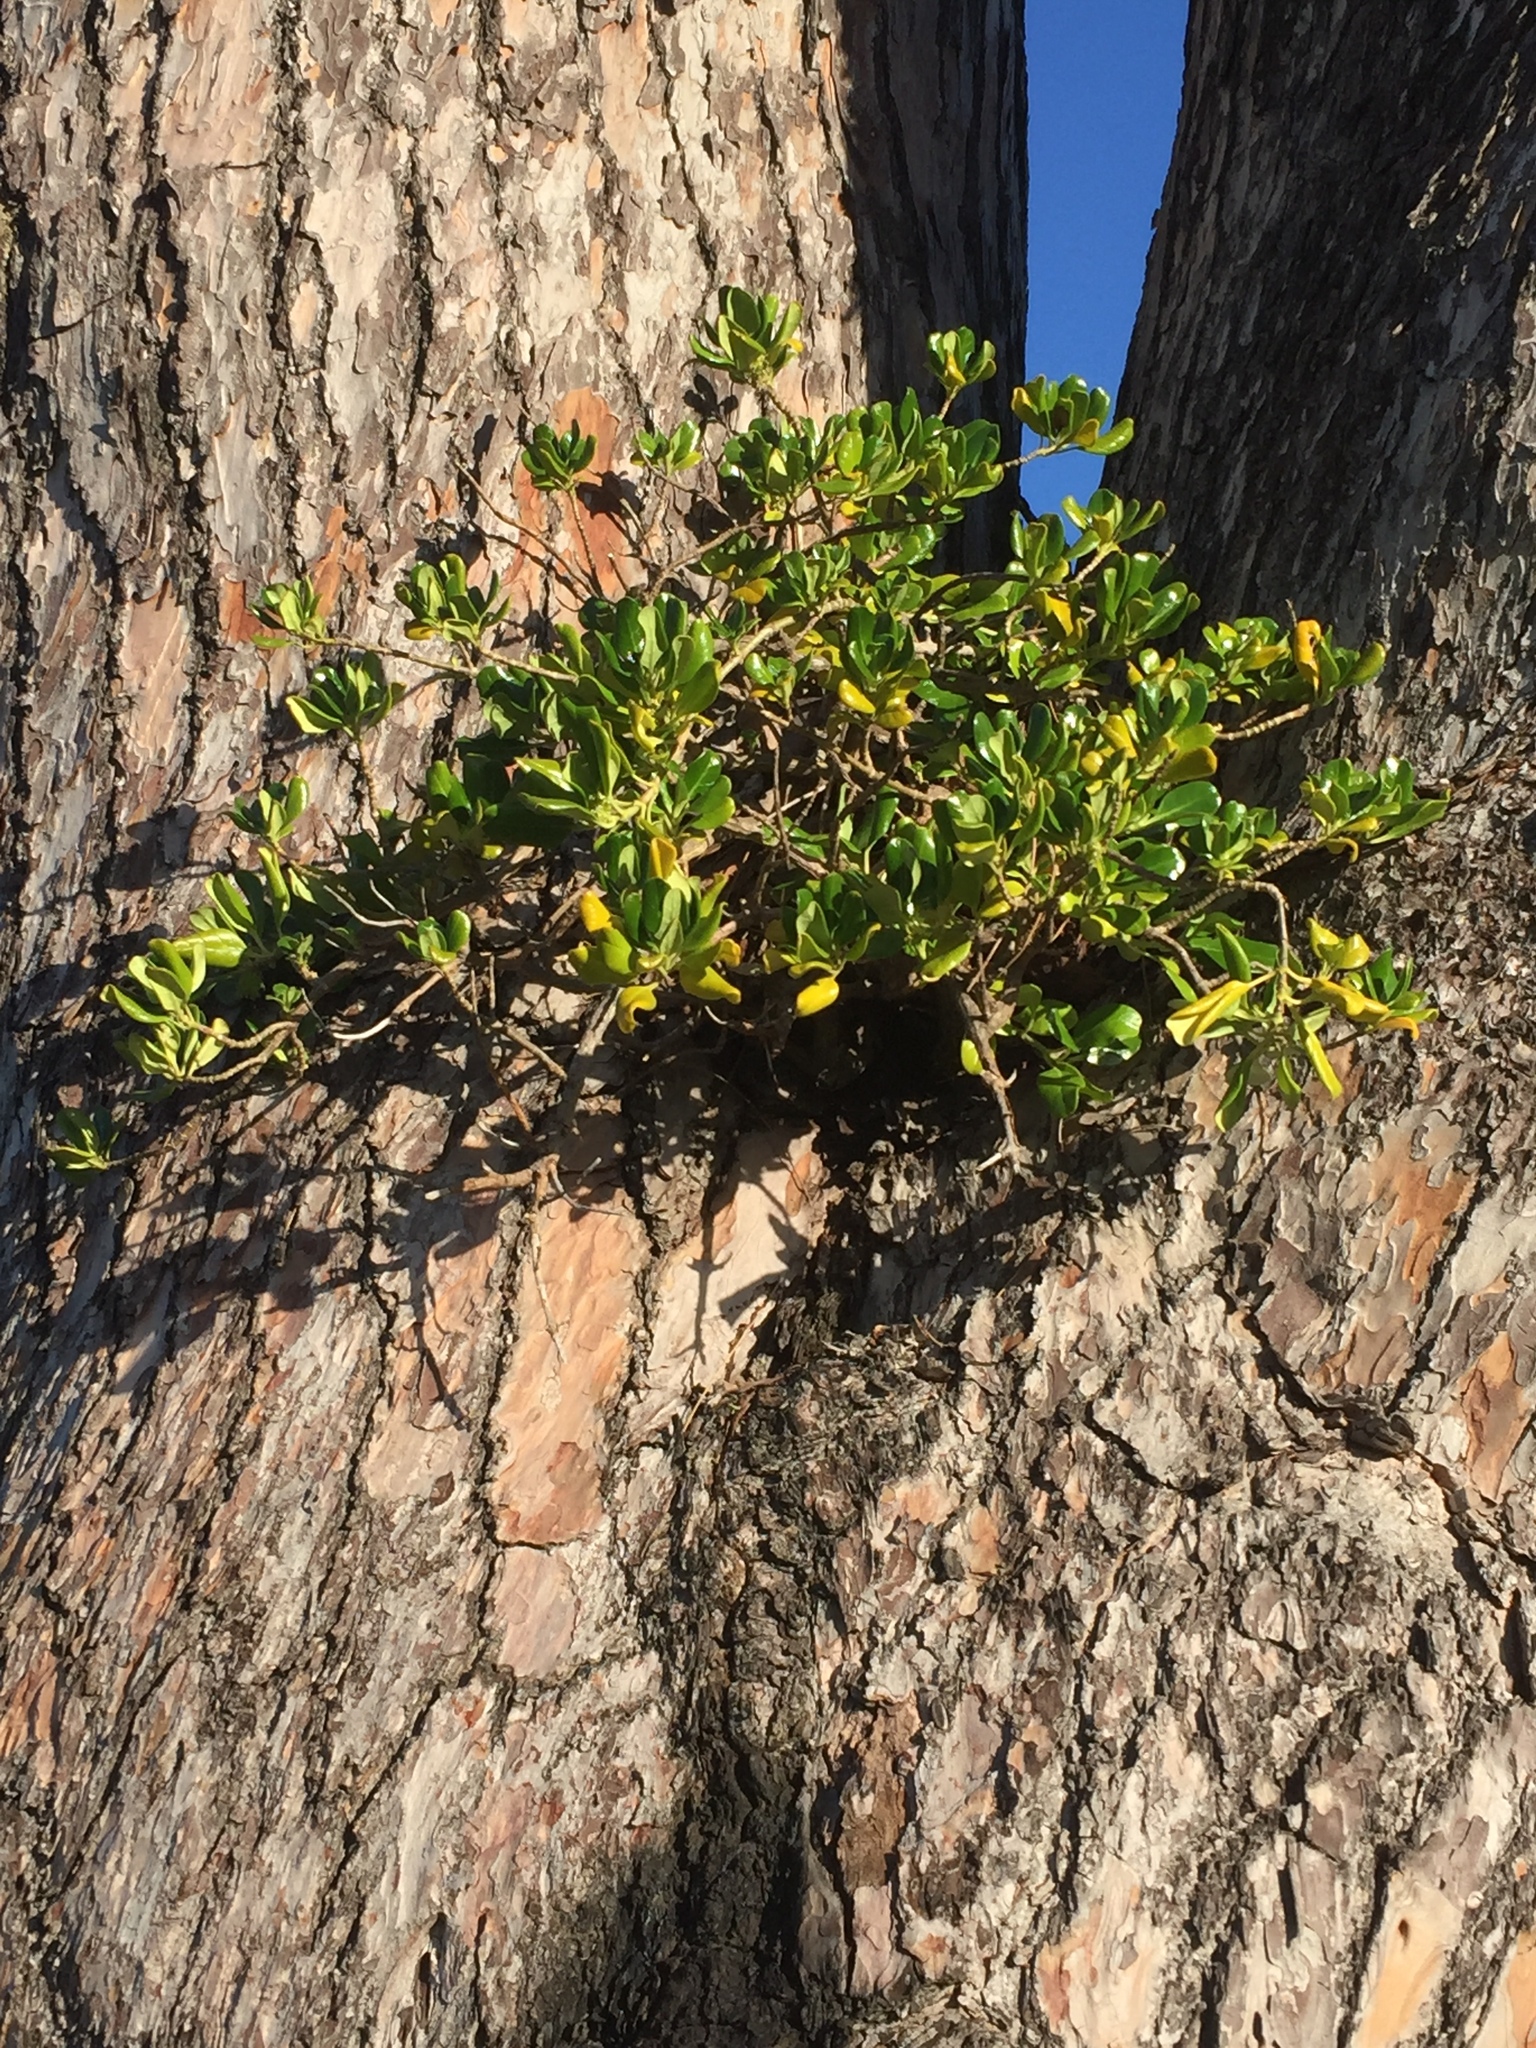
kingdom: Plantae
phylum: Tracheophyta
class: Magnoliopsida
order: Gentianales
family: Rubiaceae
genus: Coprosma
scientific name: Coprosma repens
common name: Tree bedstraw
